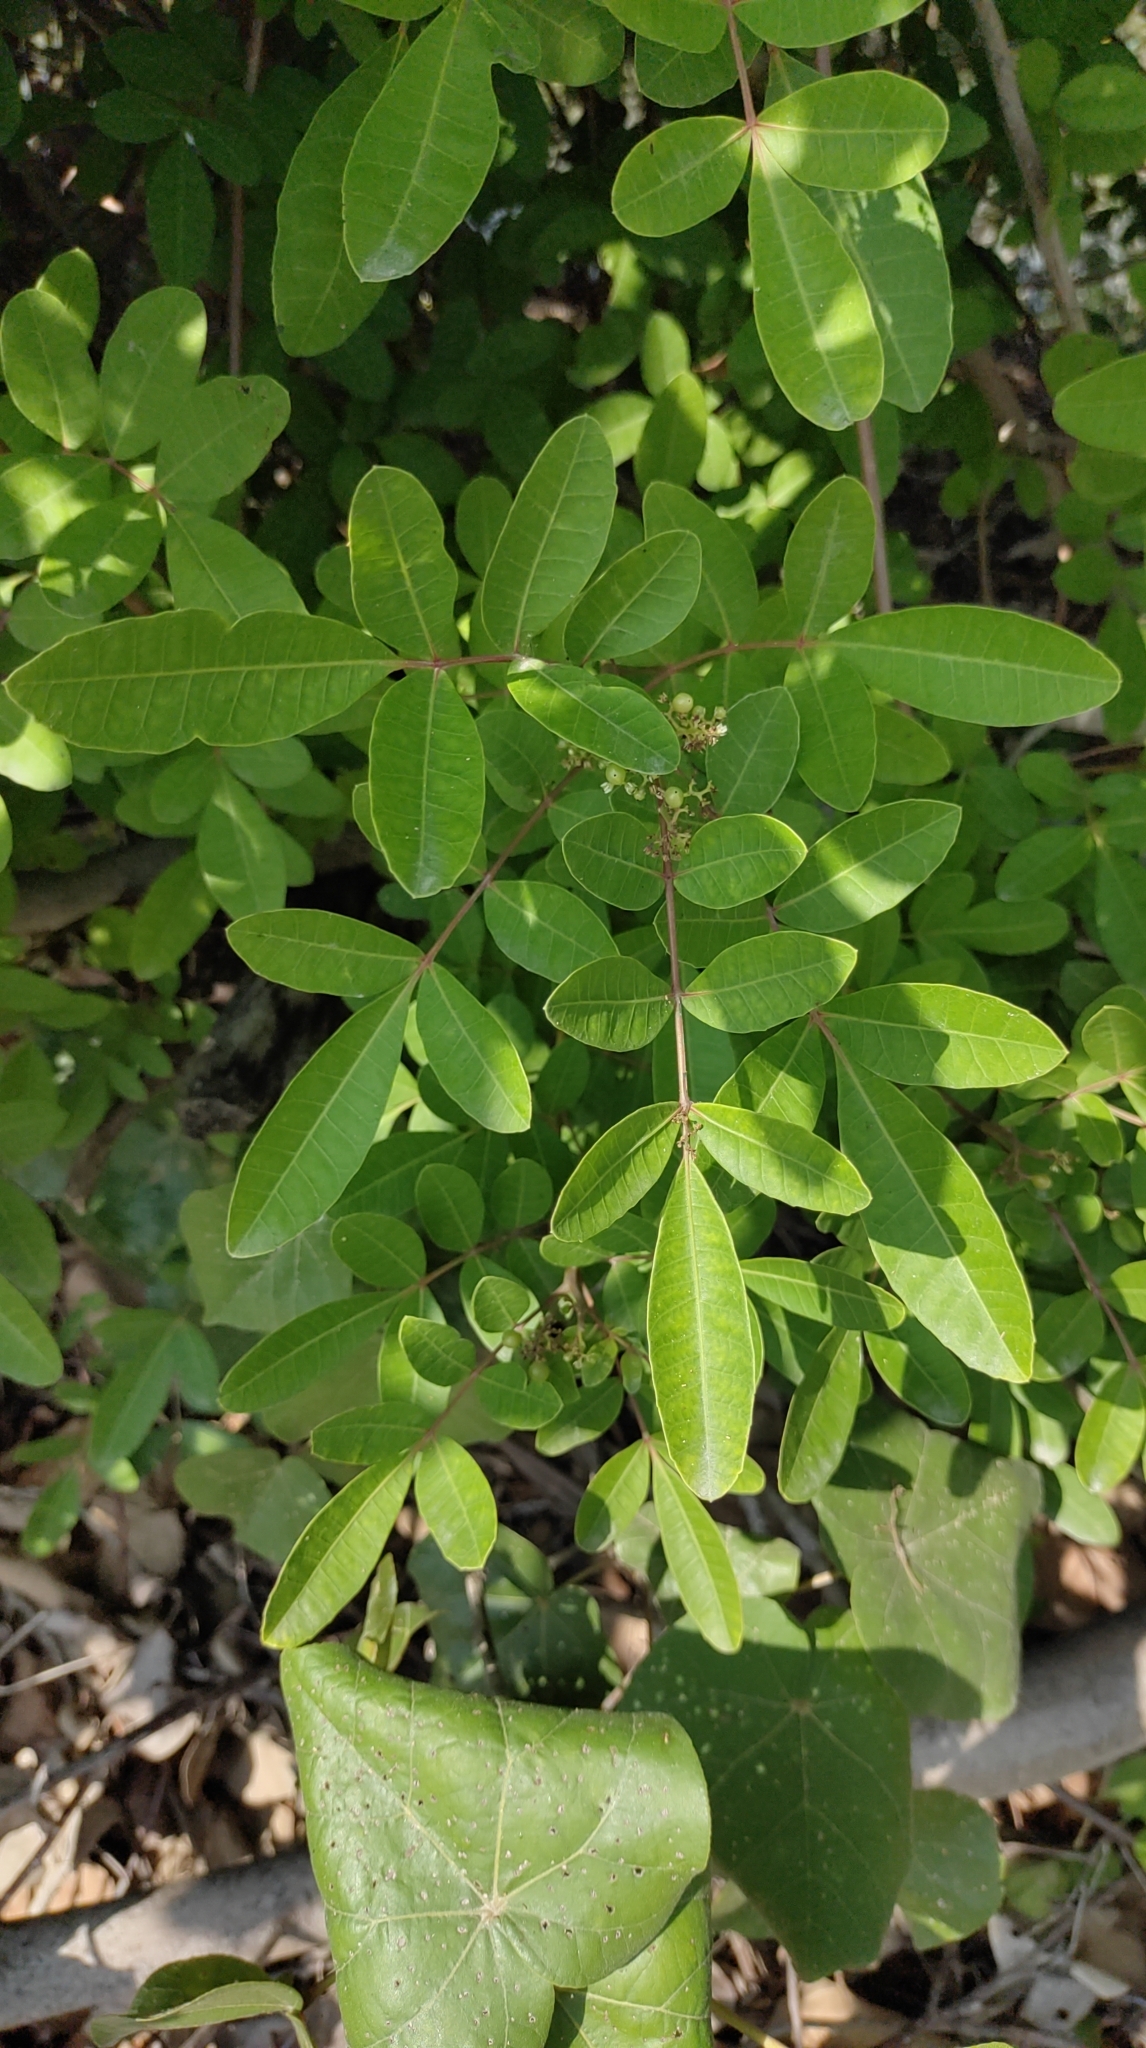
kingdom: Plantae
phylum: Tracheophyta
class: Magnoliopsida
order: Sapindales
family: Anacardiaceae
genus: Schinus
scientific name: Schinus terebinthifolia
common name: Brazilian peppertree
